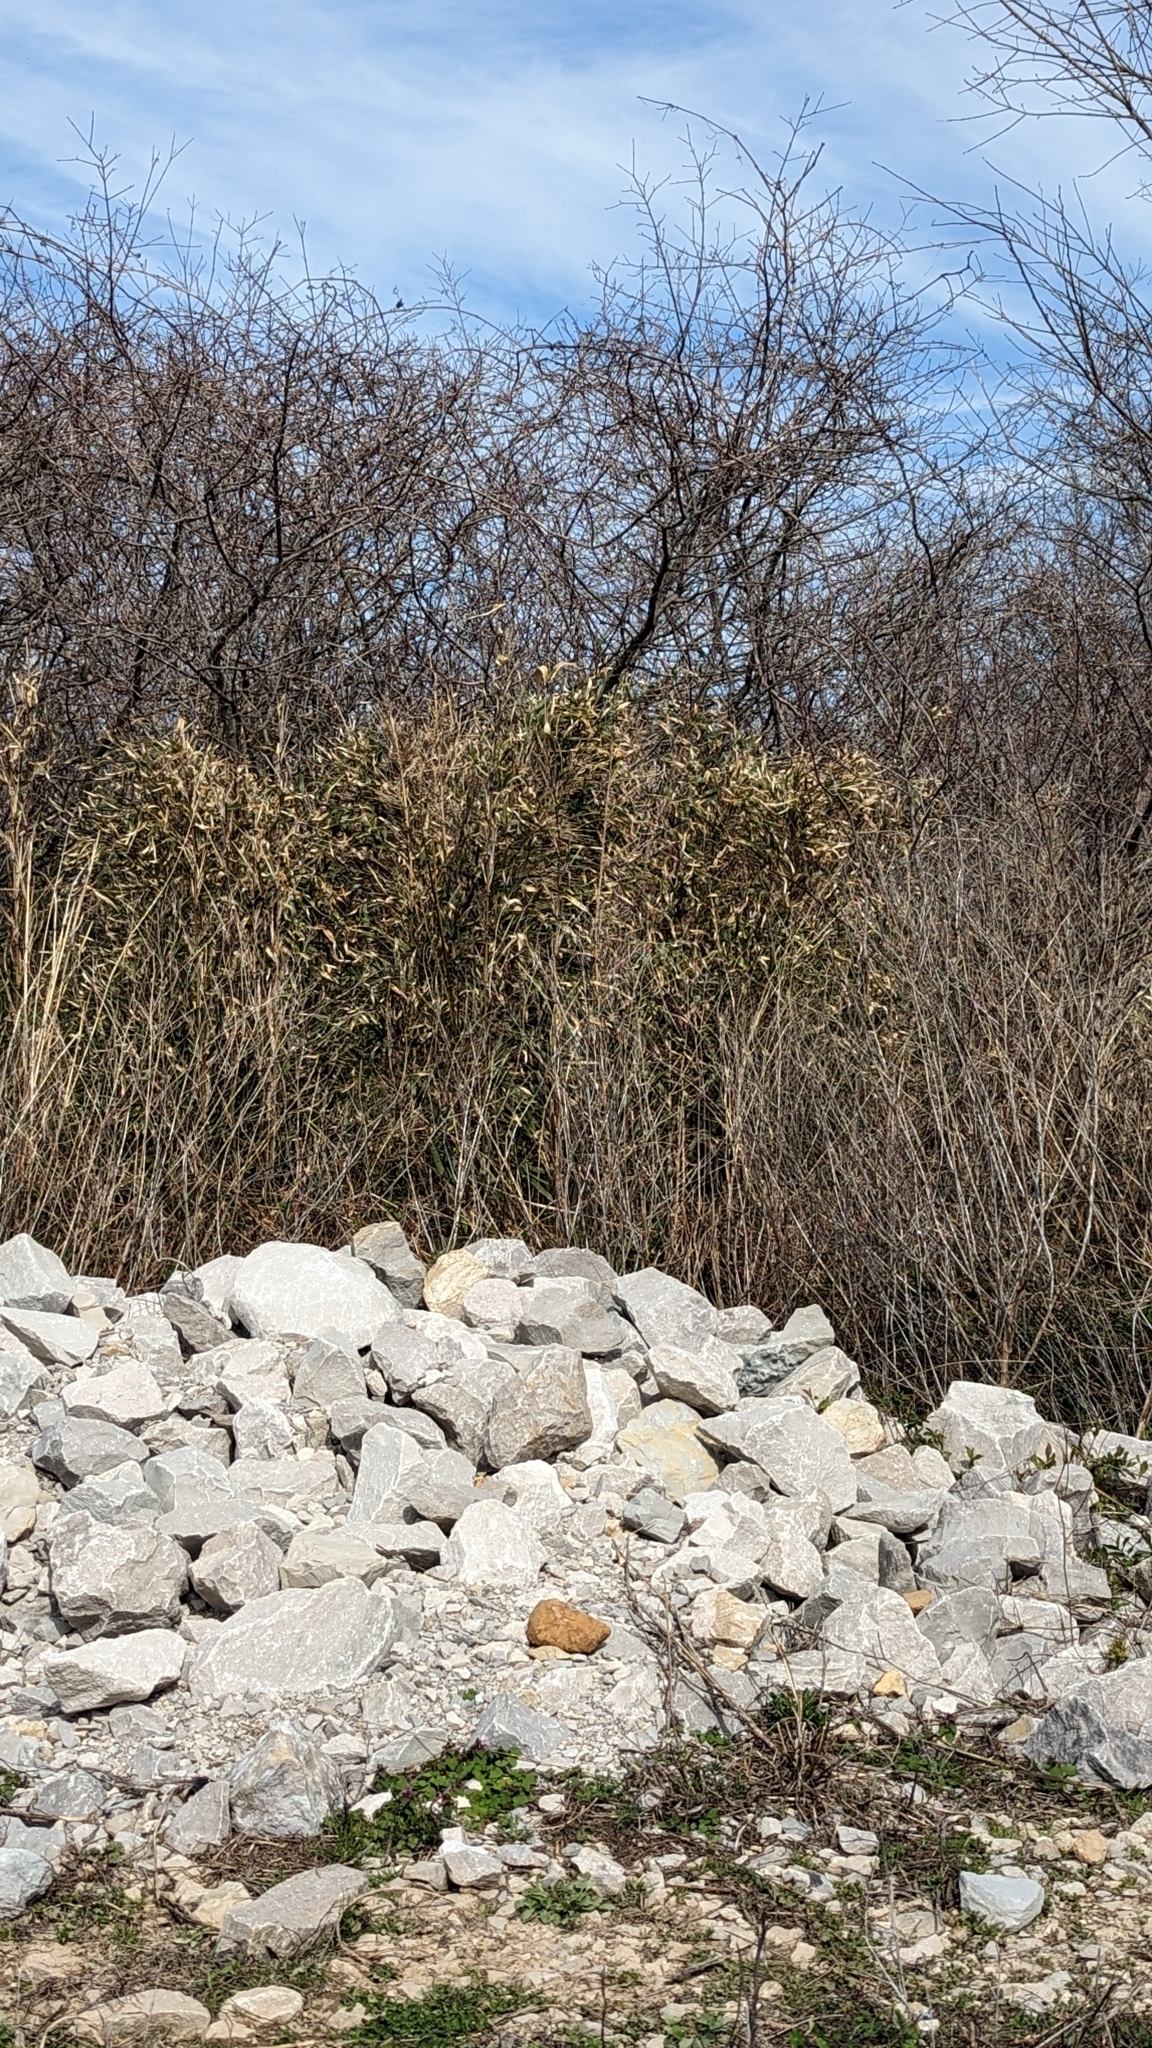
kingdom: Plantae
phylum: Tracheophyta
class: Liliopsida
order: Poales
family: Poaceae
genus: Arundinaria
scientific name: Arundinaria gigantea
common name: Giant cane
